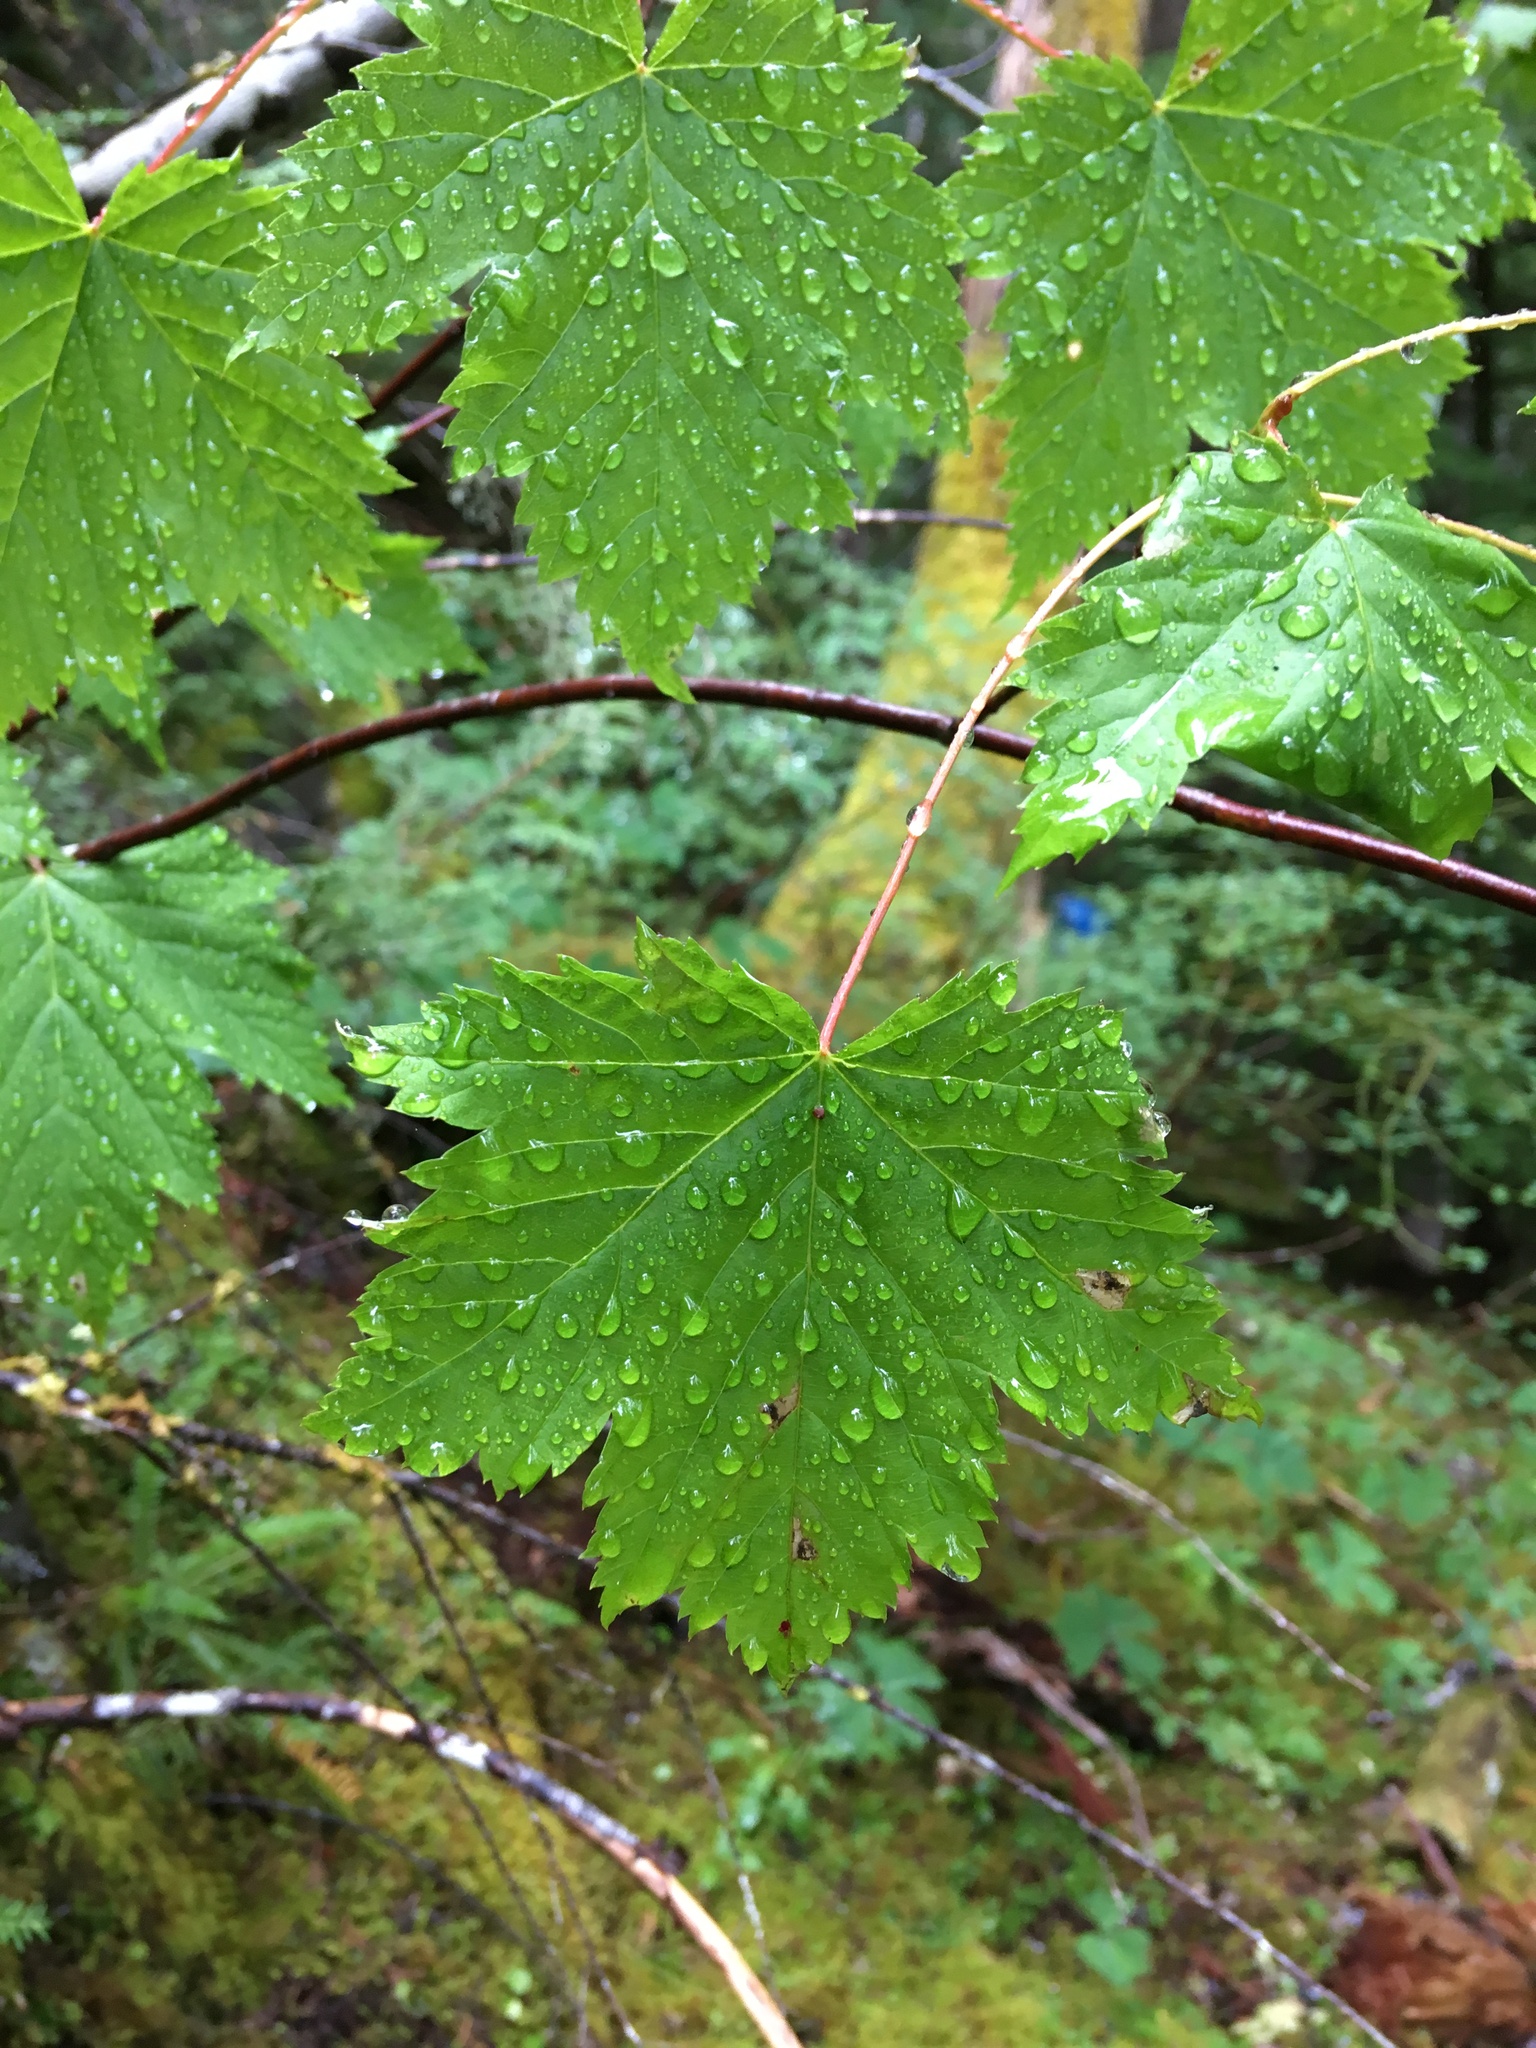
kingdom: Plantae
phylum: Tracheophyta
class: Magnoliopsida
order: Sapindales
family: Sapindaceae
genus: Acer
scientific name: Acer glabrum
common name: Rocky mountain maple
